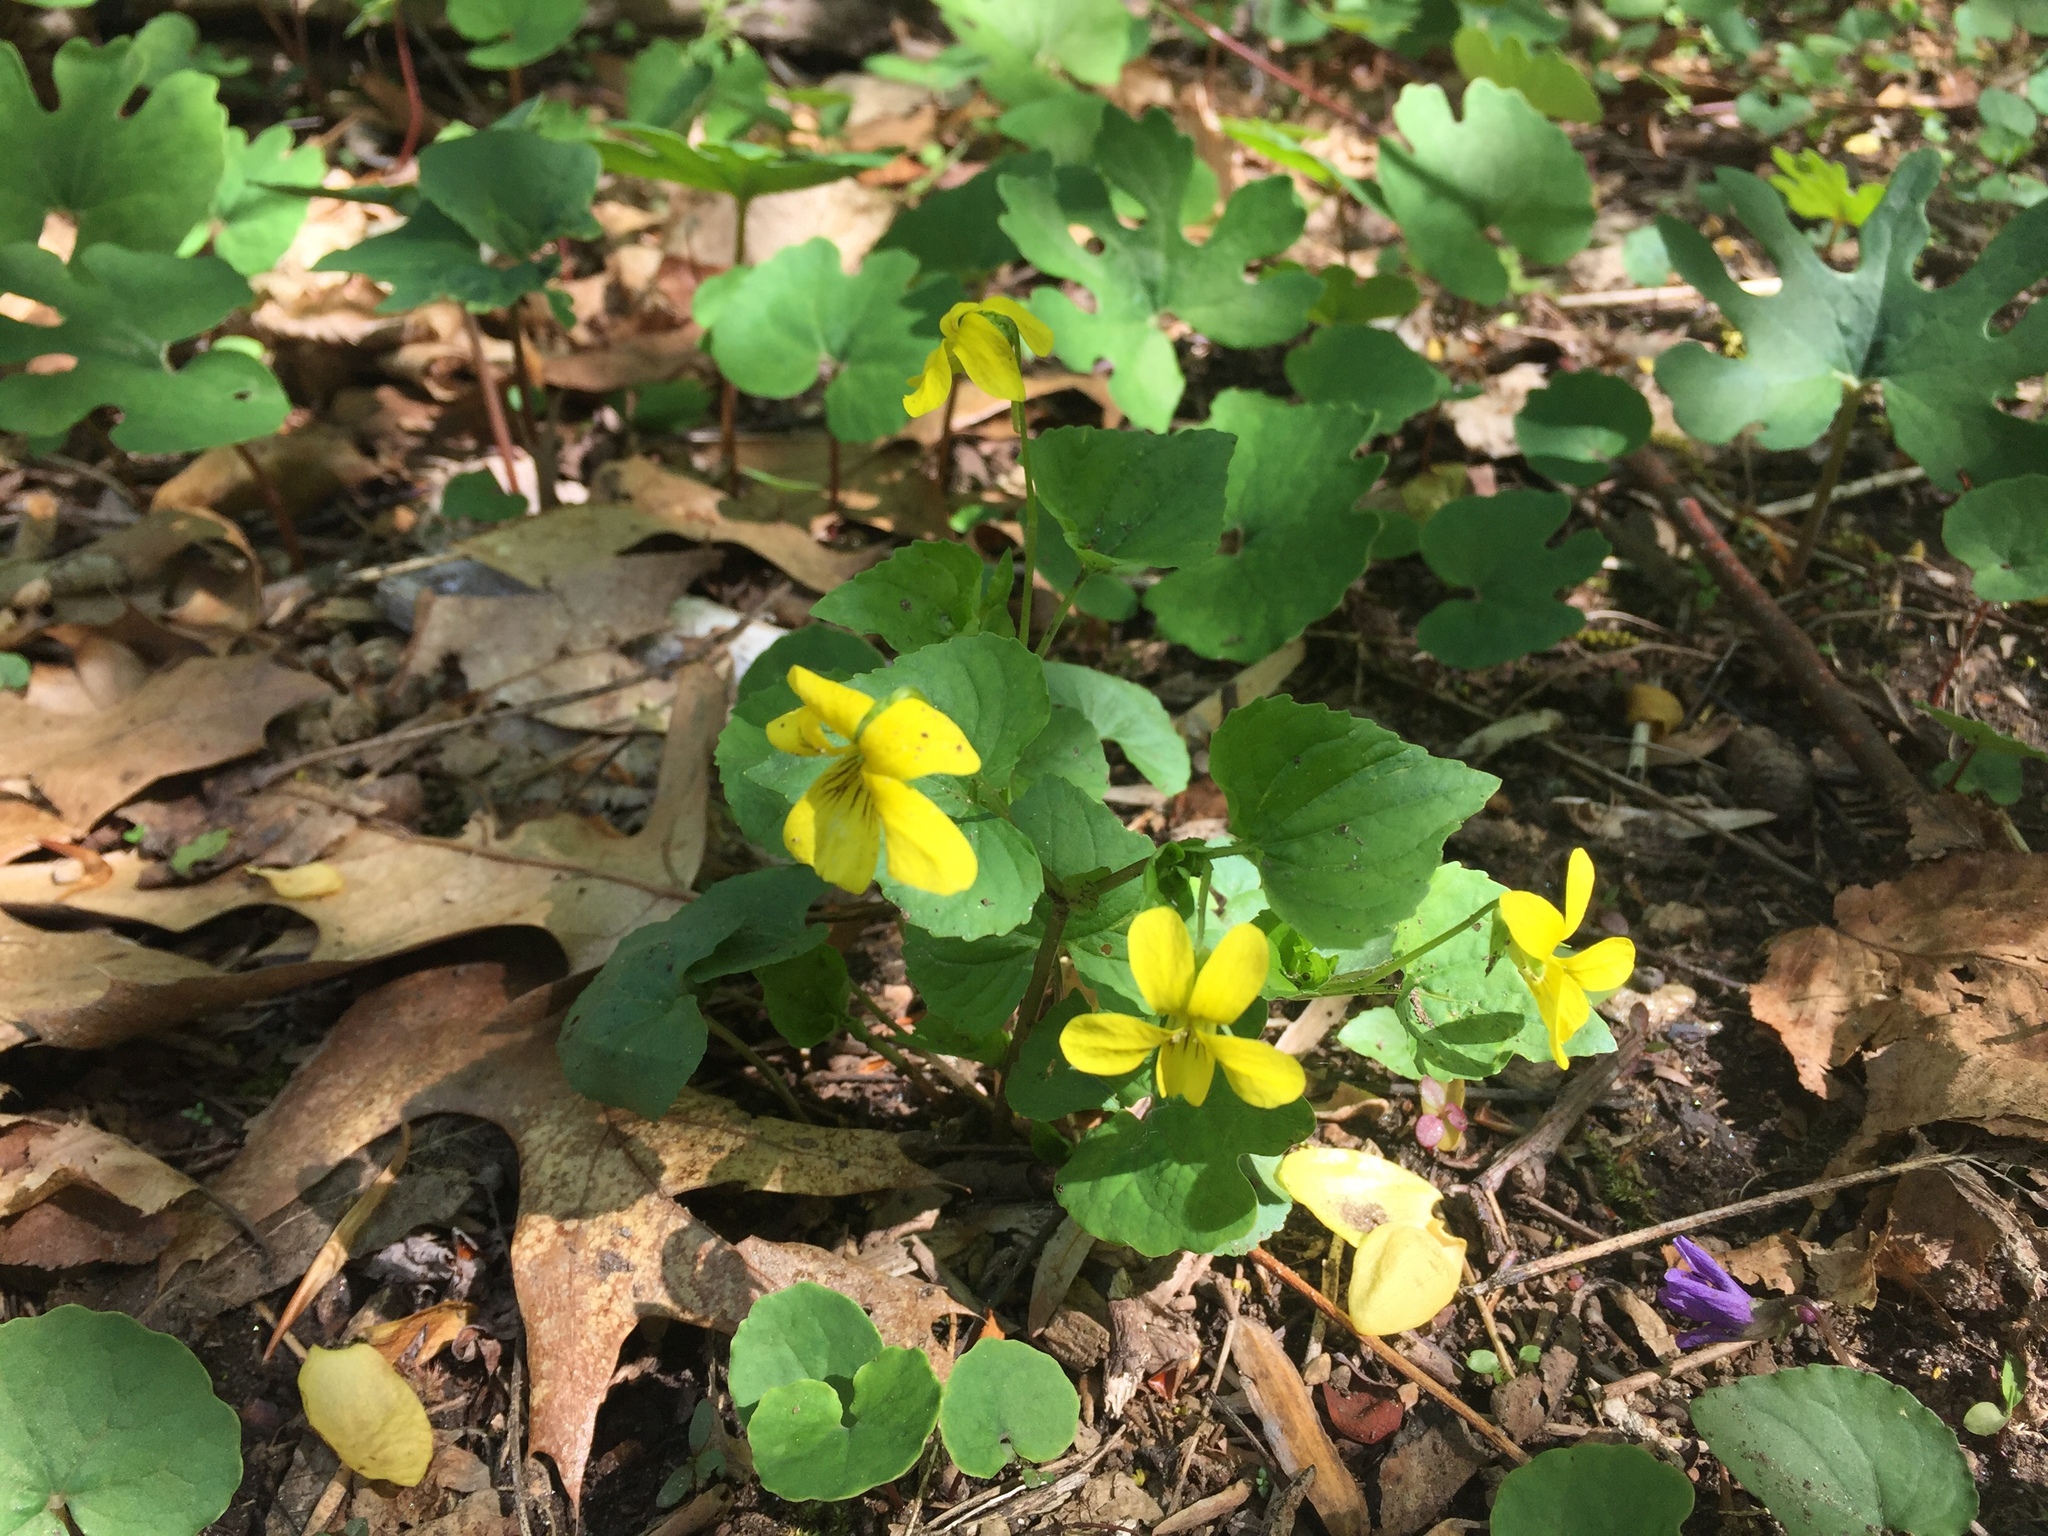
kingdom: Plantae
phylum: Tracheophyta
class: Magnoliopsida
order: Malpighiales
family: Violaceae
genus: Viola
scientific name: Viola eriocarpa
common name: Smooth yellow violet
